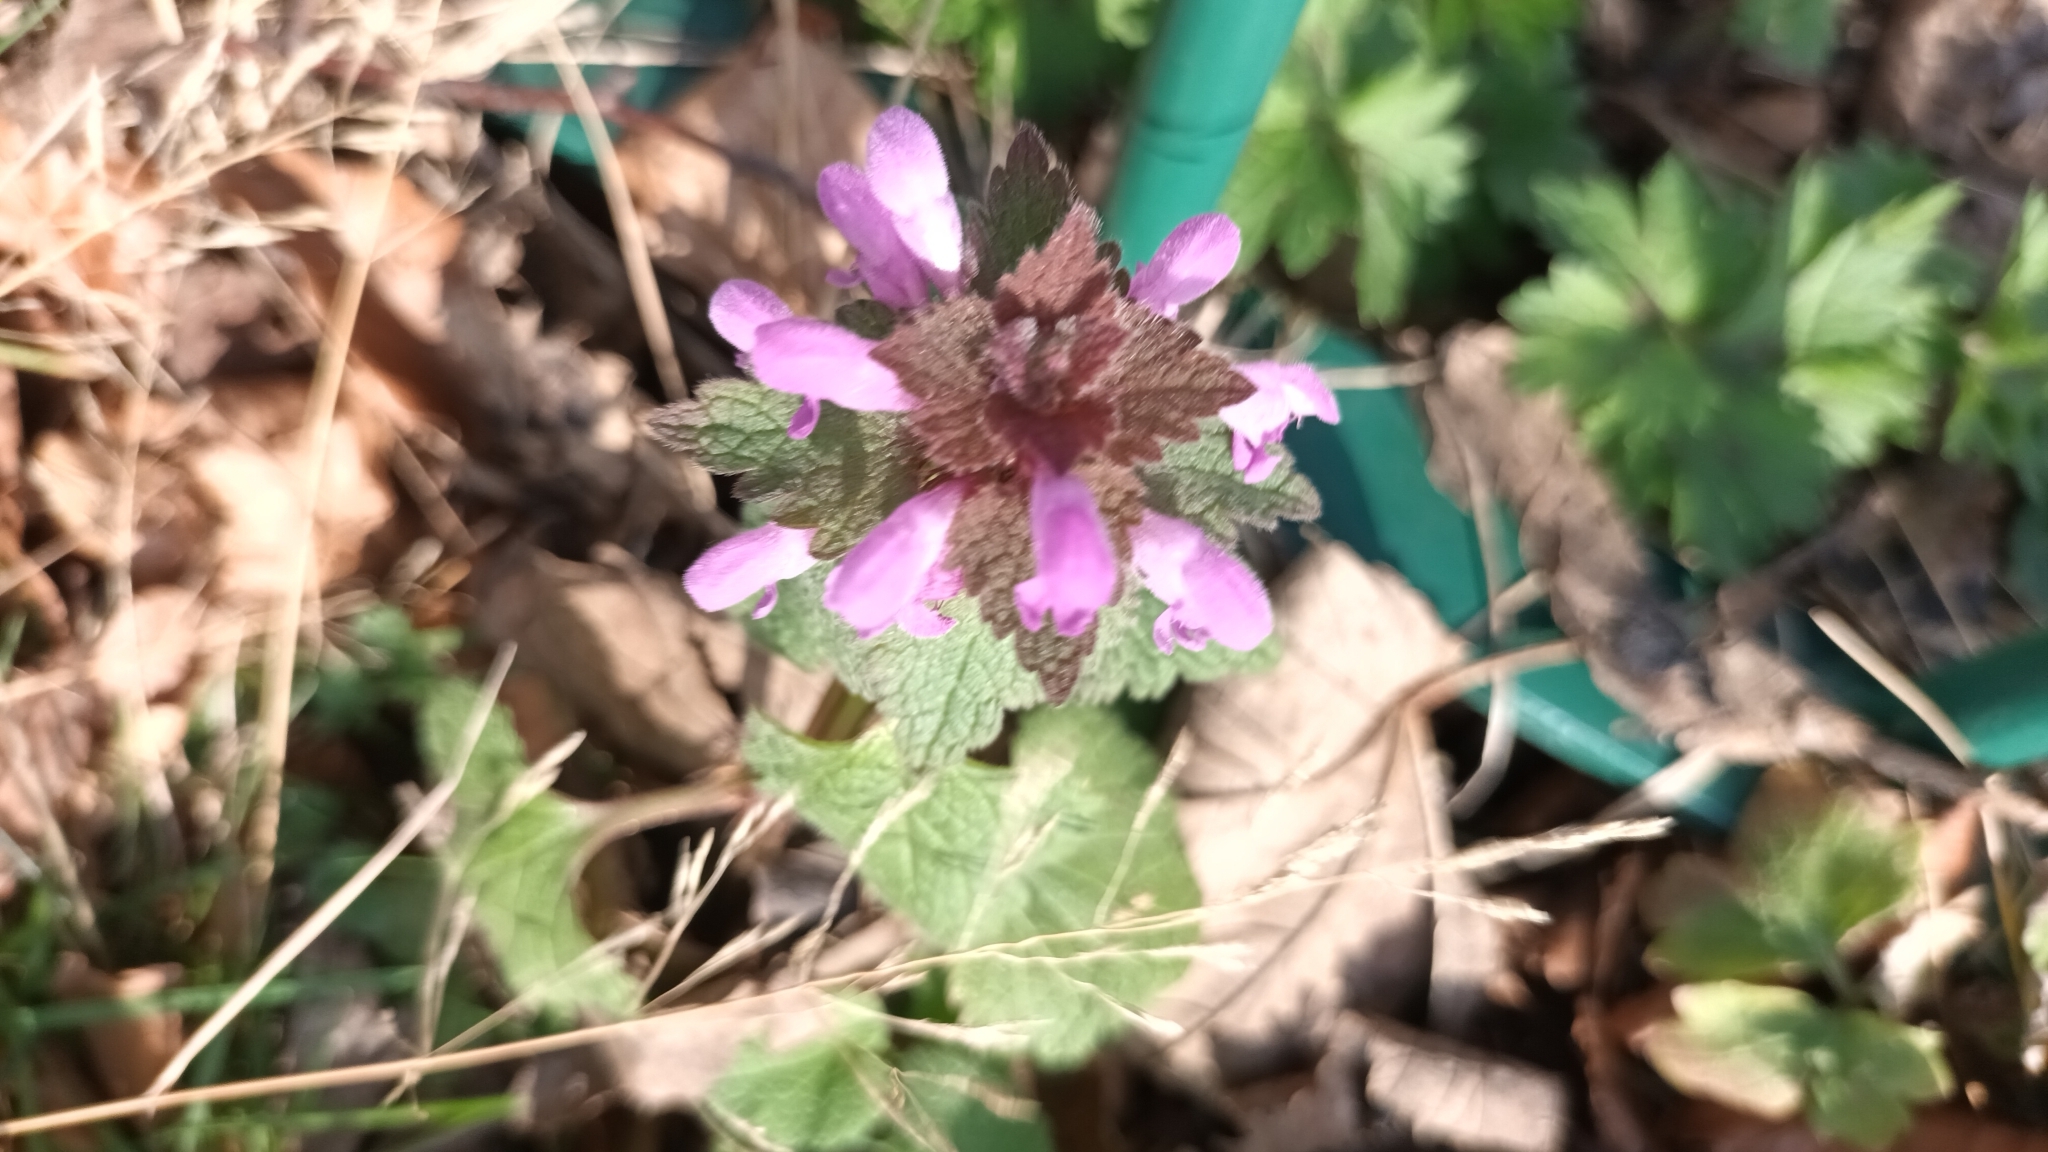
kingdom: Plantae
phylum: Tracheophyta
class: Magnoliopsida
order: Lamiales
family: Lamiaceae
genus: Lamium
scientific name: Lamium purpureum
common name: Red dead-nettle
